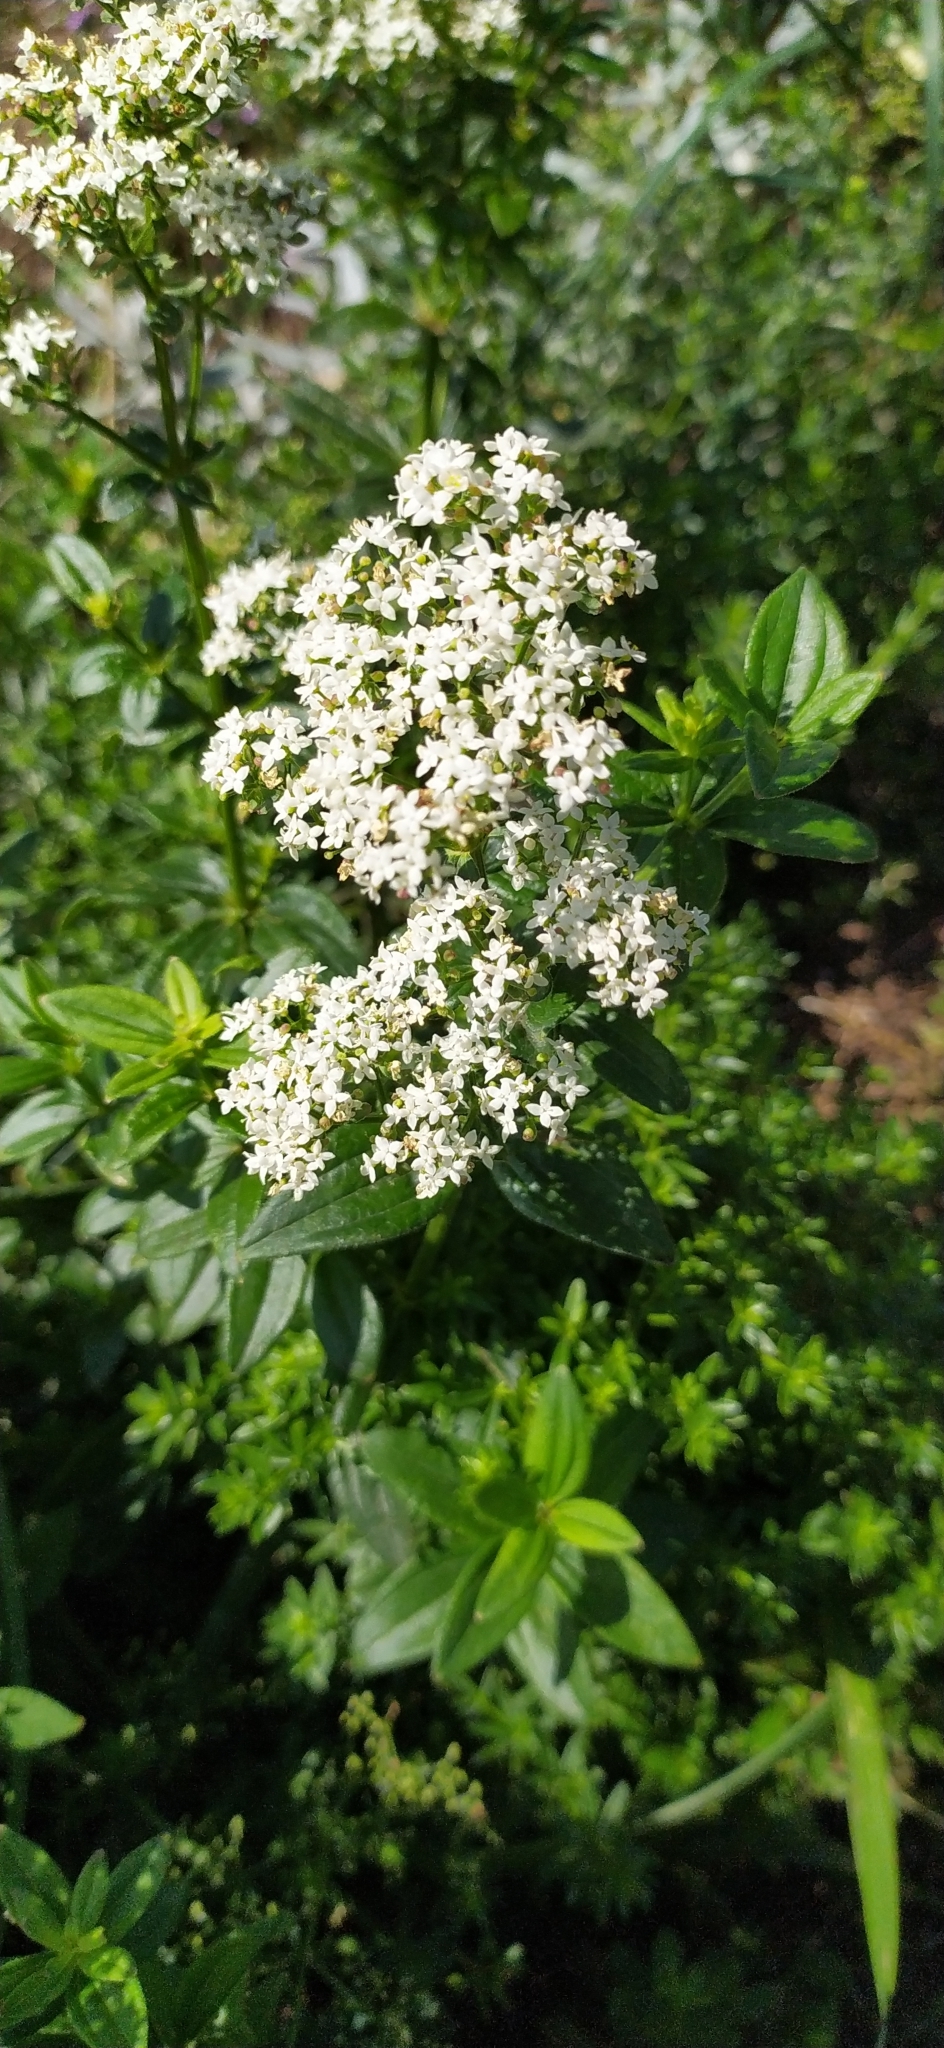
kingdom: Plantae
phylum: Tracheophyta
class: Magnoliopsida
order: Gentianales
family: Rubiaceae
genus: Galium
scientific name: Galium rubioides
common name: European bedstraw
